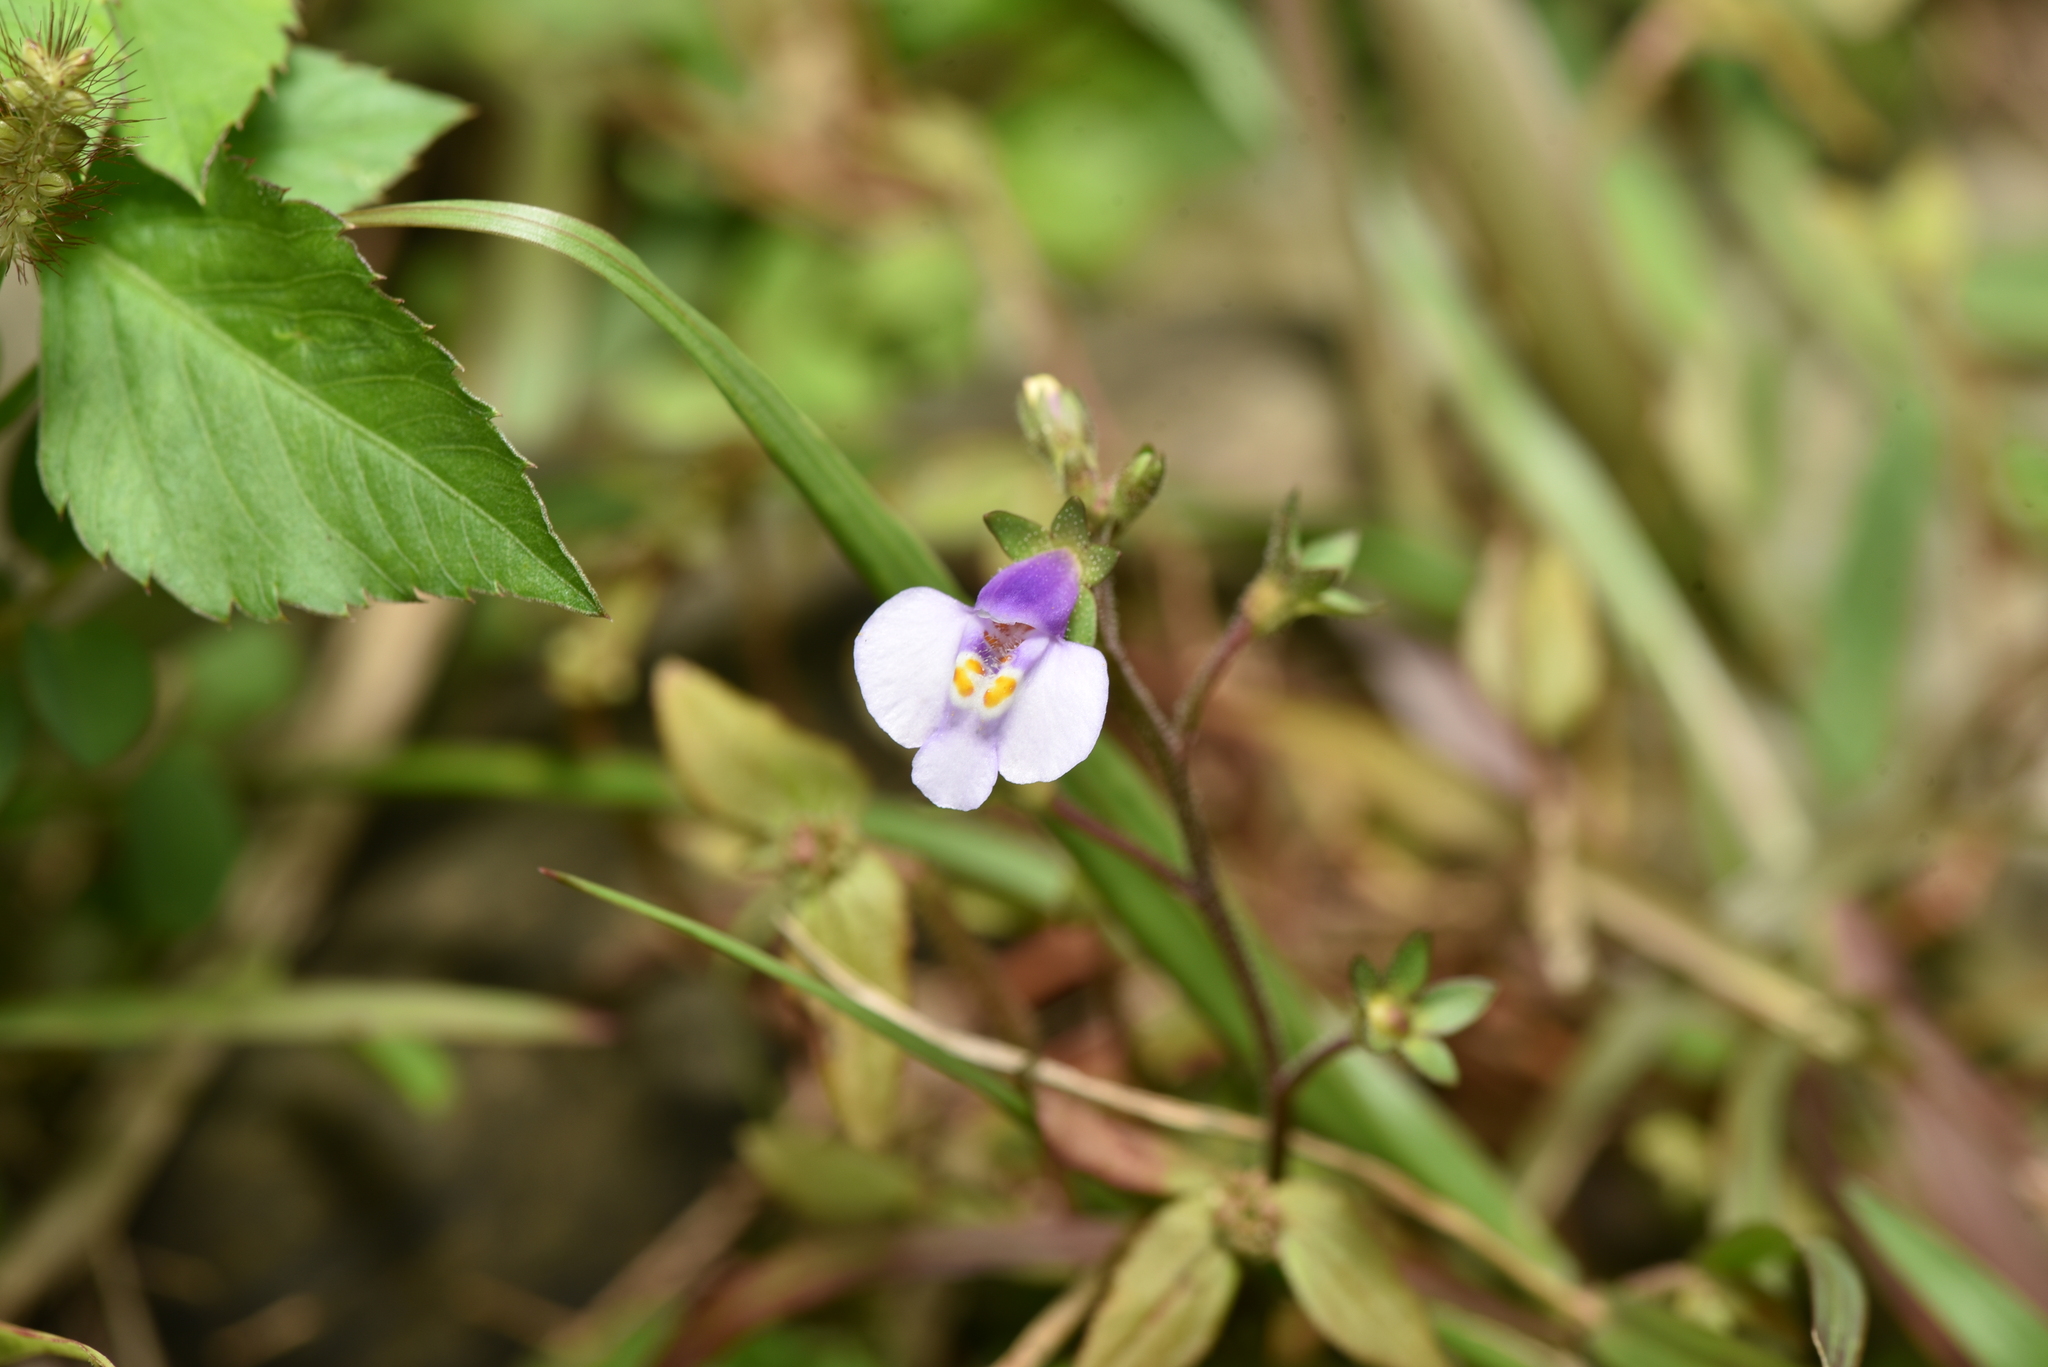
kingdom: Plantae
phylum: Tracheophyta
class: Magnoliopsida
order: Lamiales
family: Mazaceae
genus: Mazus
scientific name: Mazus pumilus
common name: Japanese mazus
